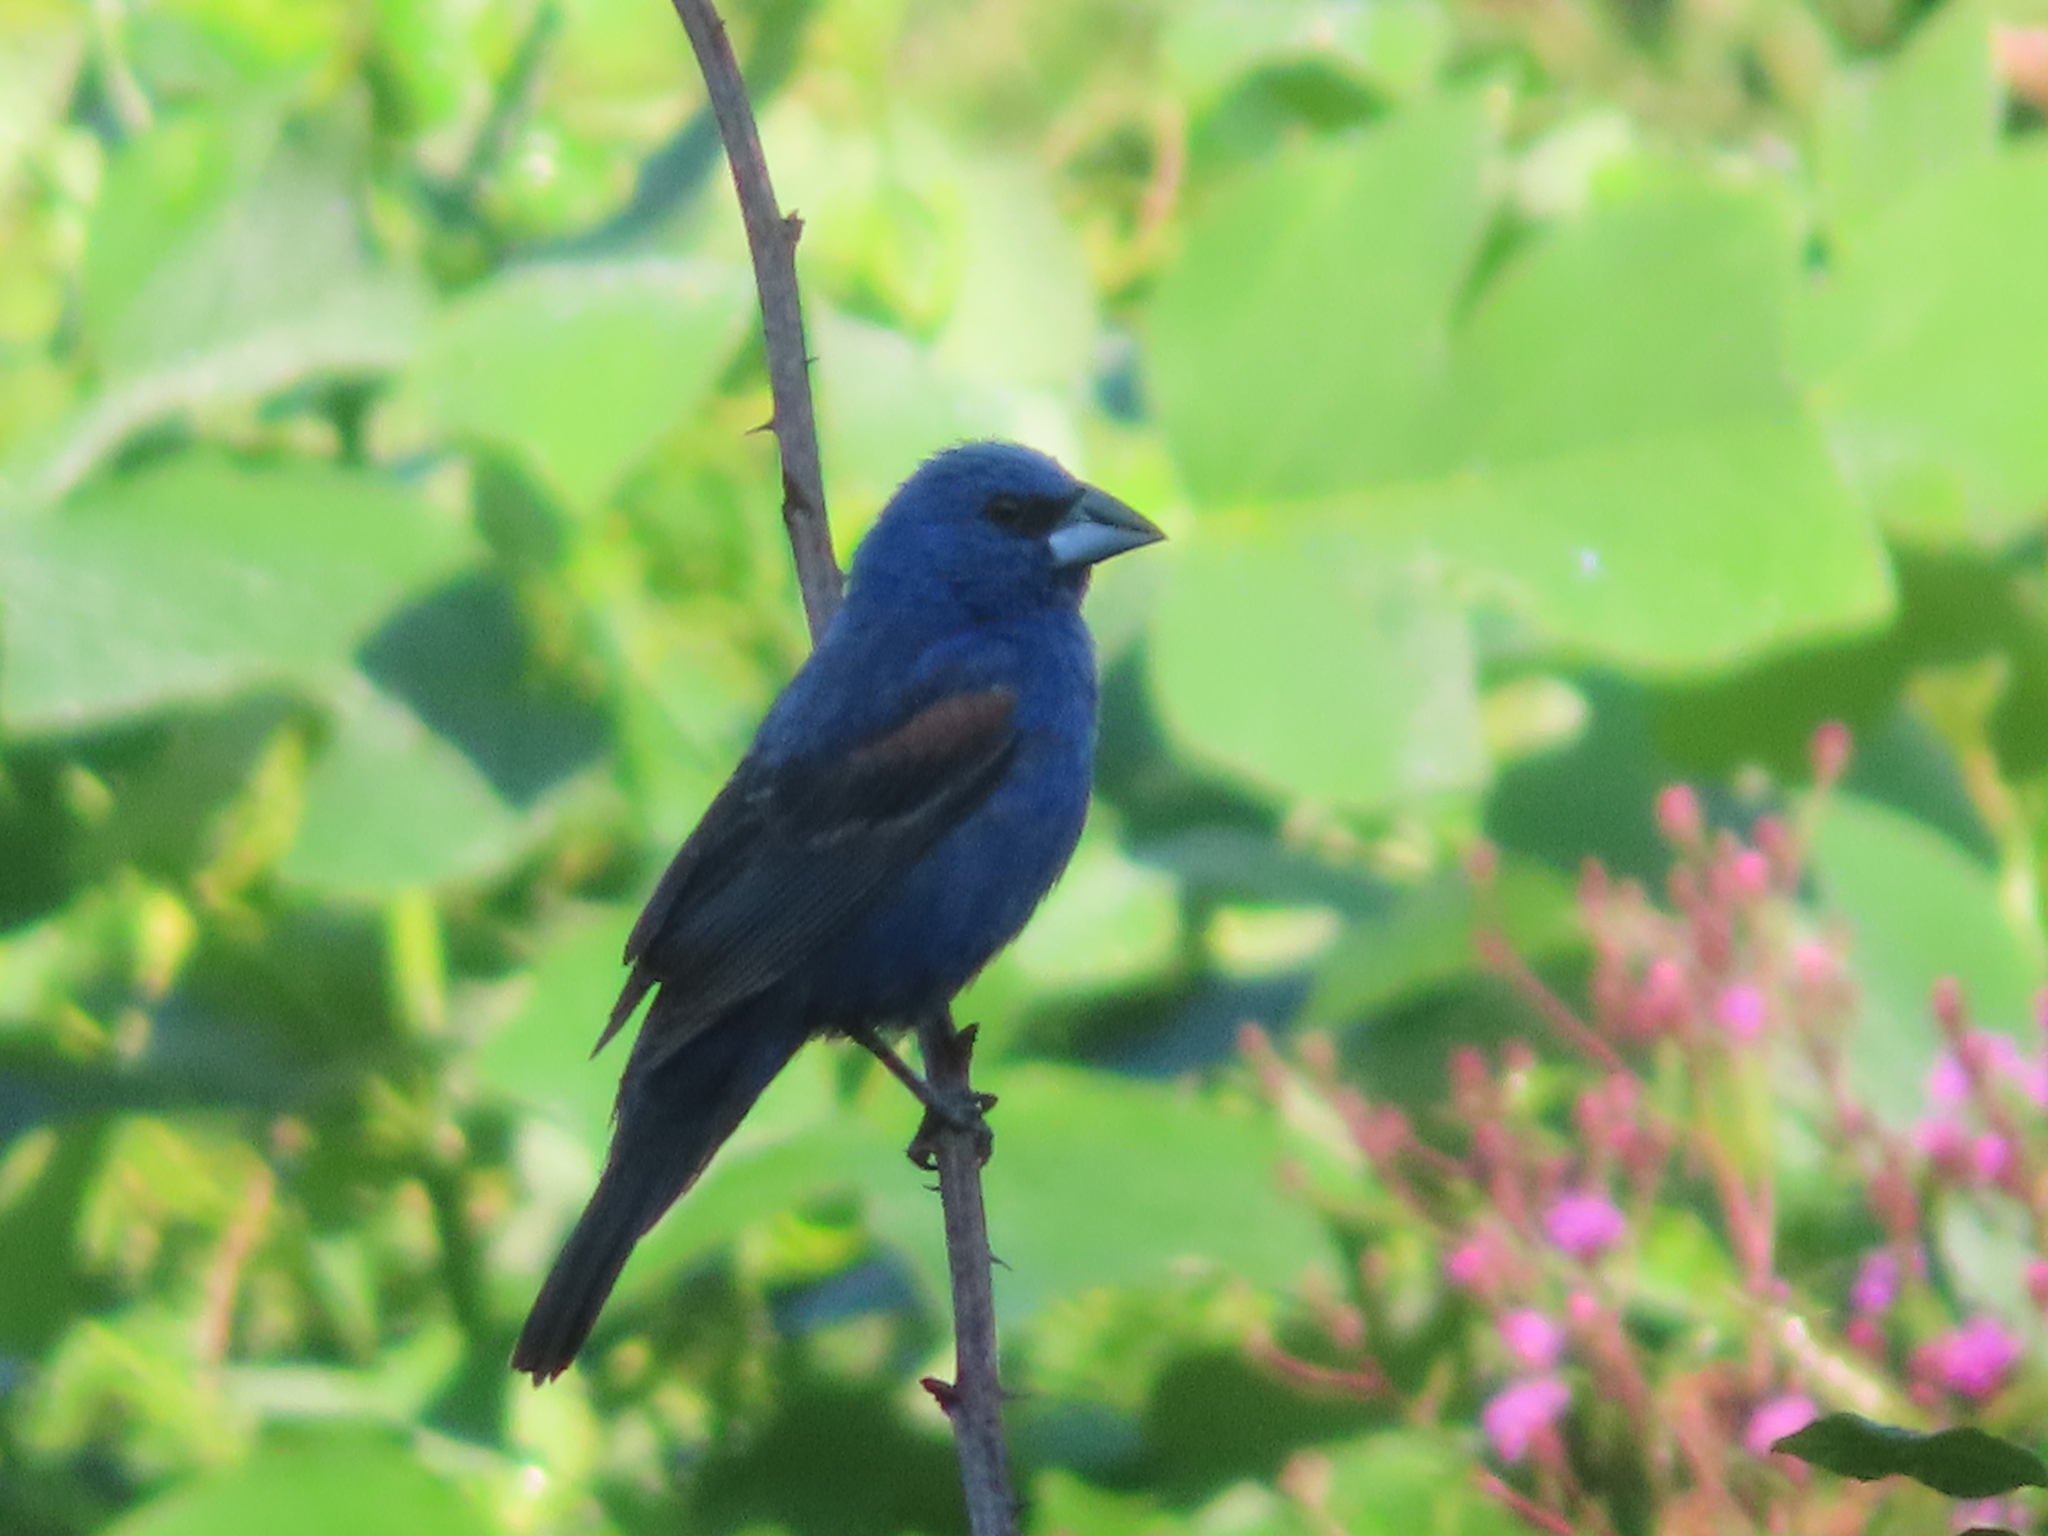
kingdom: Animalia
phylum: Chordata
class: Aves
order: Passeriformes
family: Cardinalidae
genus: Passerina
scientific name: Passerina caerulea
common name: Blue grosbeak
